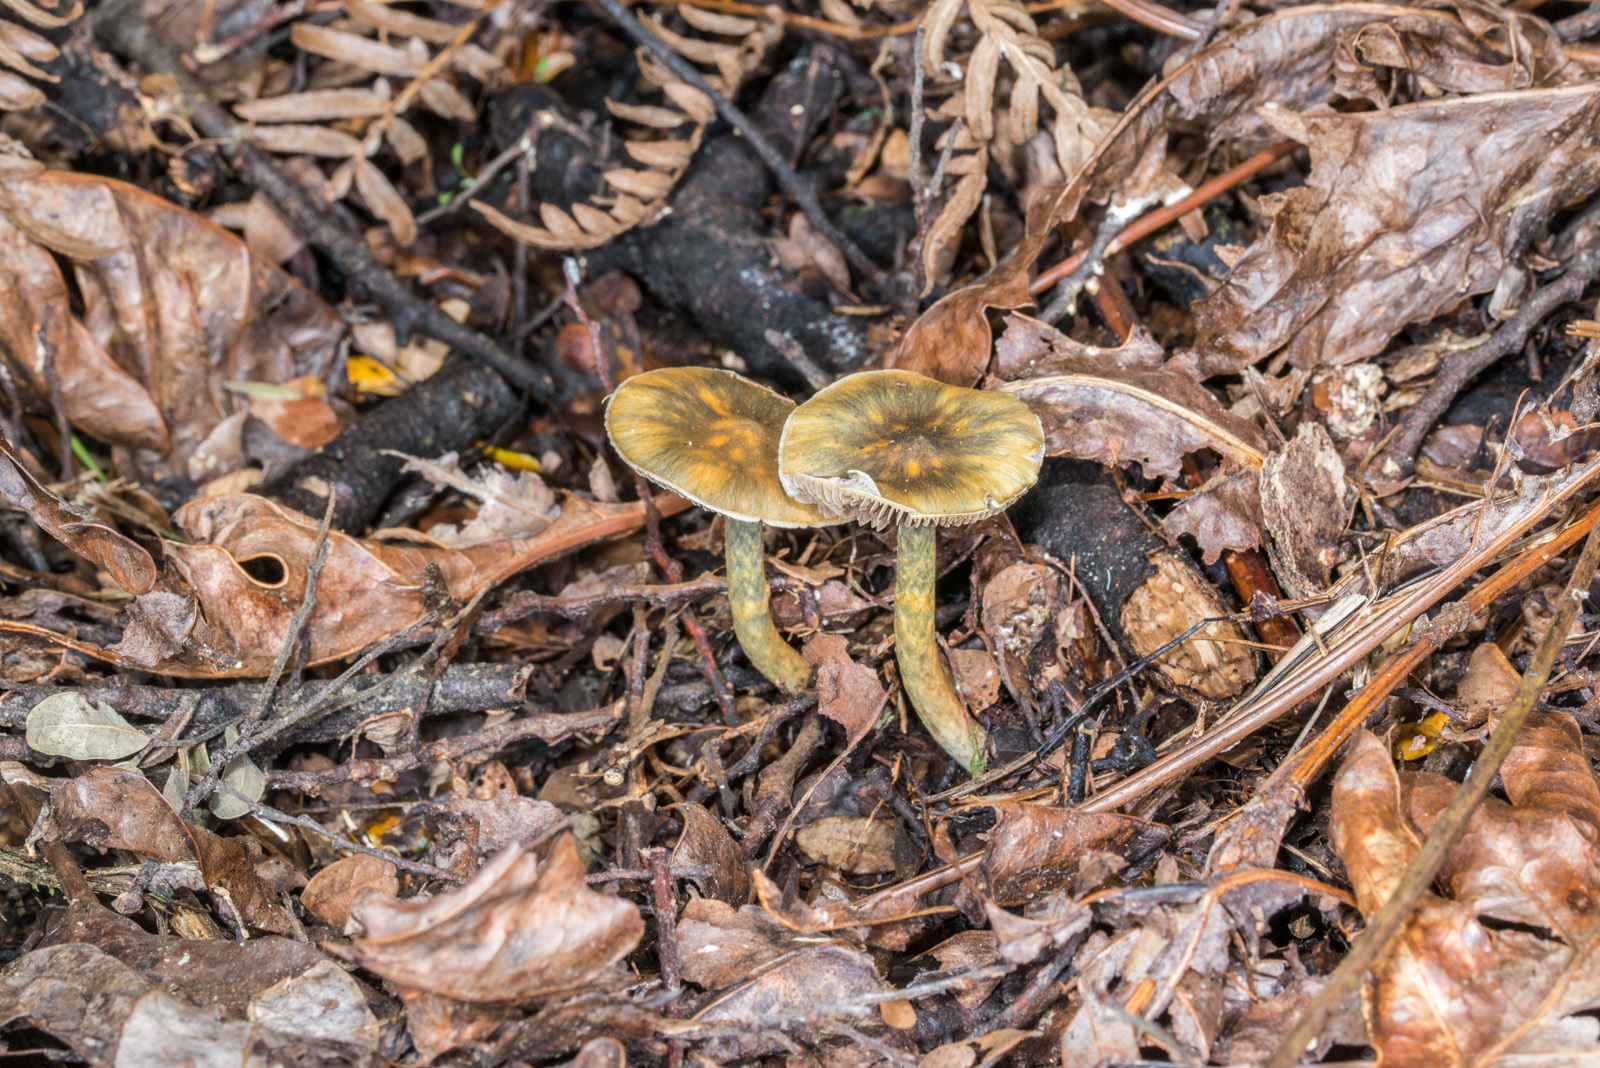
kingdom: Fungi
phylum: Basidiomycota
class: Agaricomycetes
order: Agaricales
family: Cortinariaceae
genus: Cortinarius
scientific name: Cortinarius tessiae
